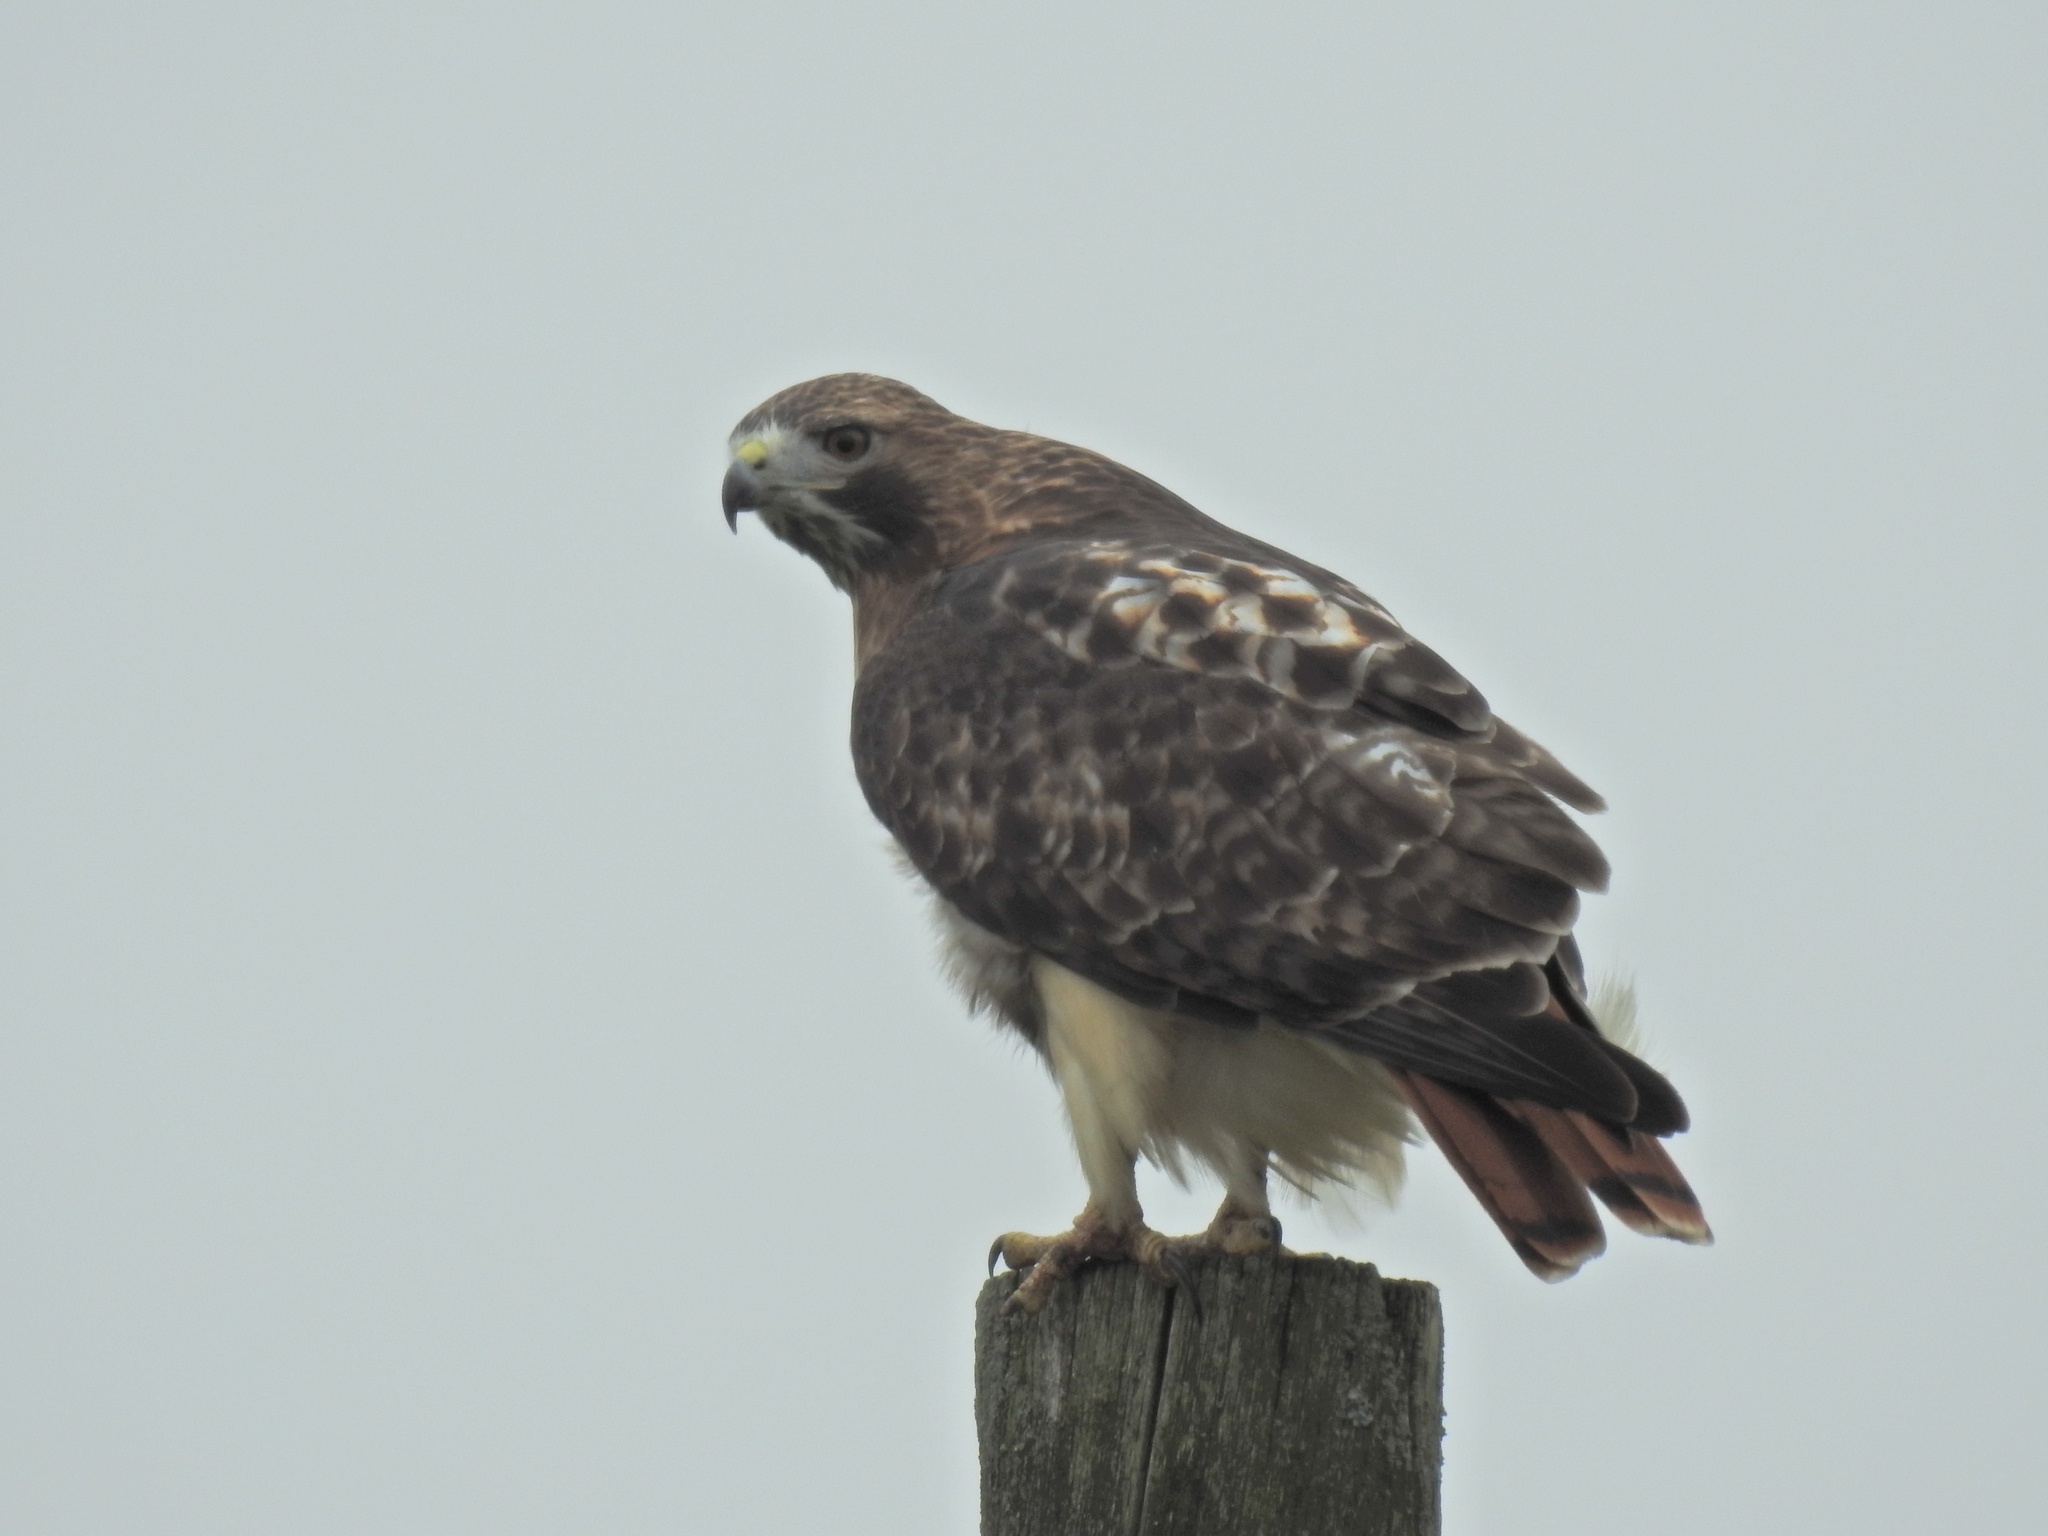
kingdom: Animalia
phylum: Chordata
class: Aves
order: Accipitriformes
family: Accipitridae
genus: Buteo
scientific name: Buteo jamaicensis
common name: Red-tailed hawk
